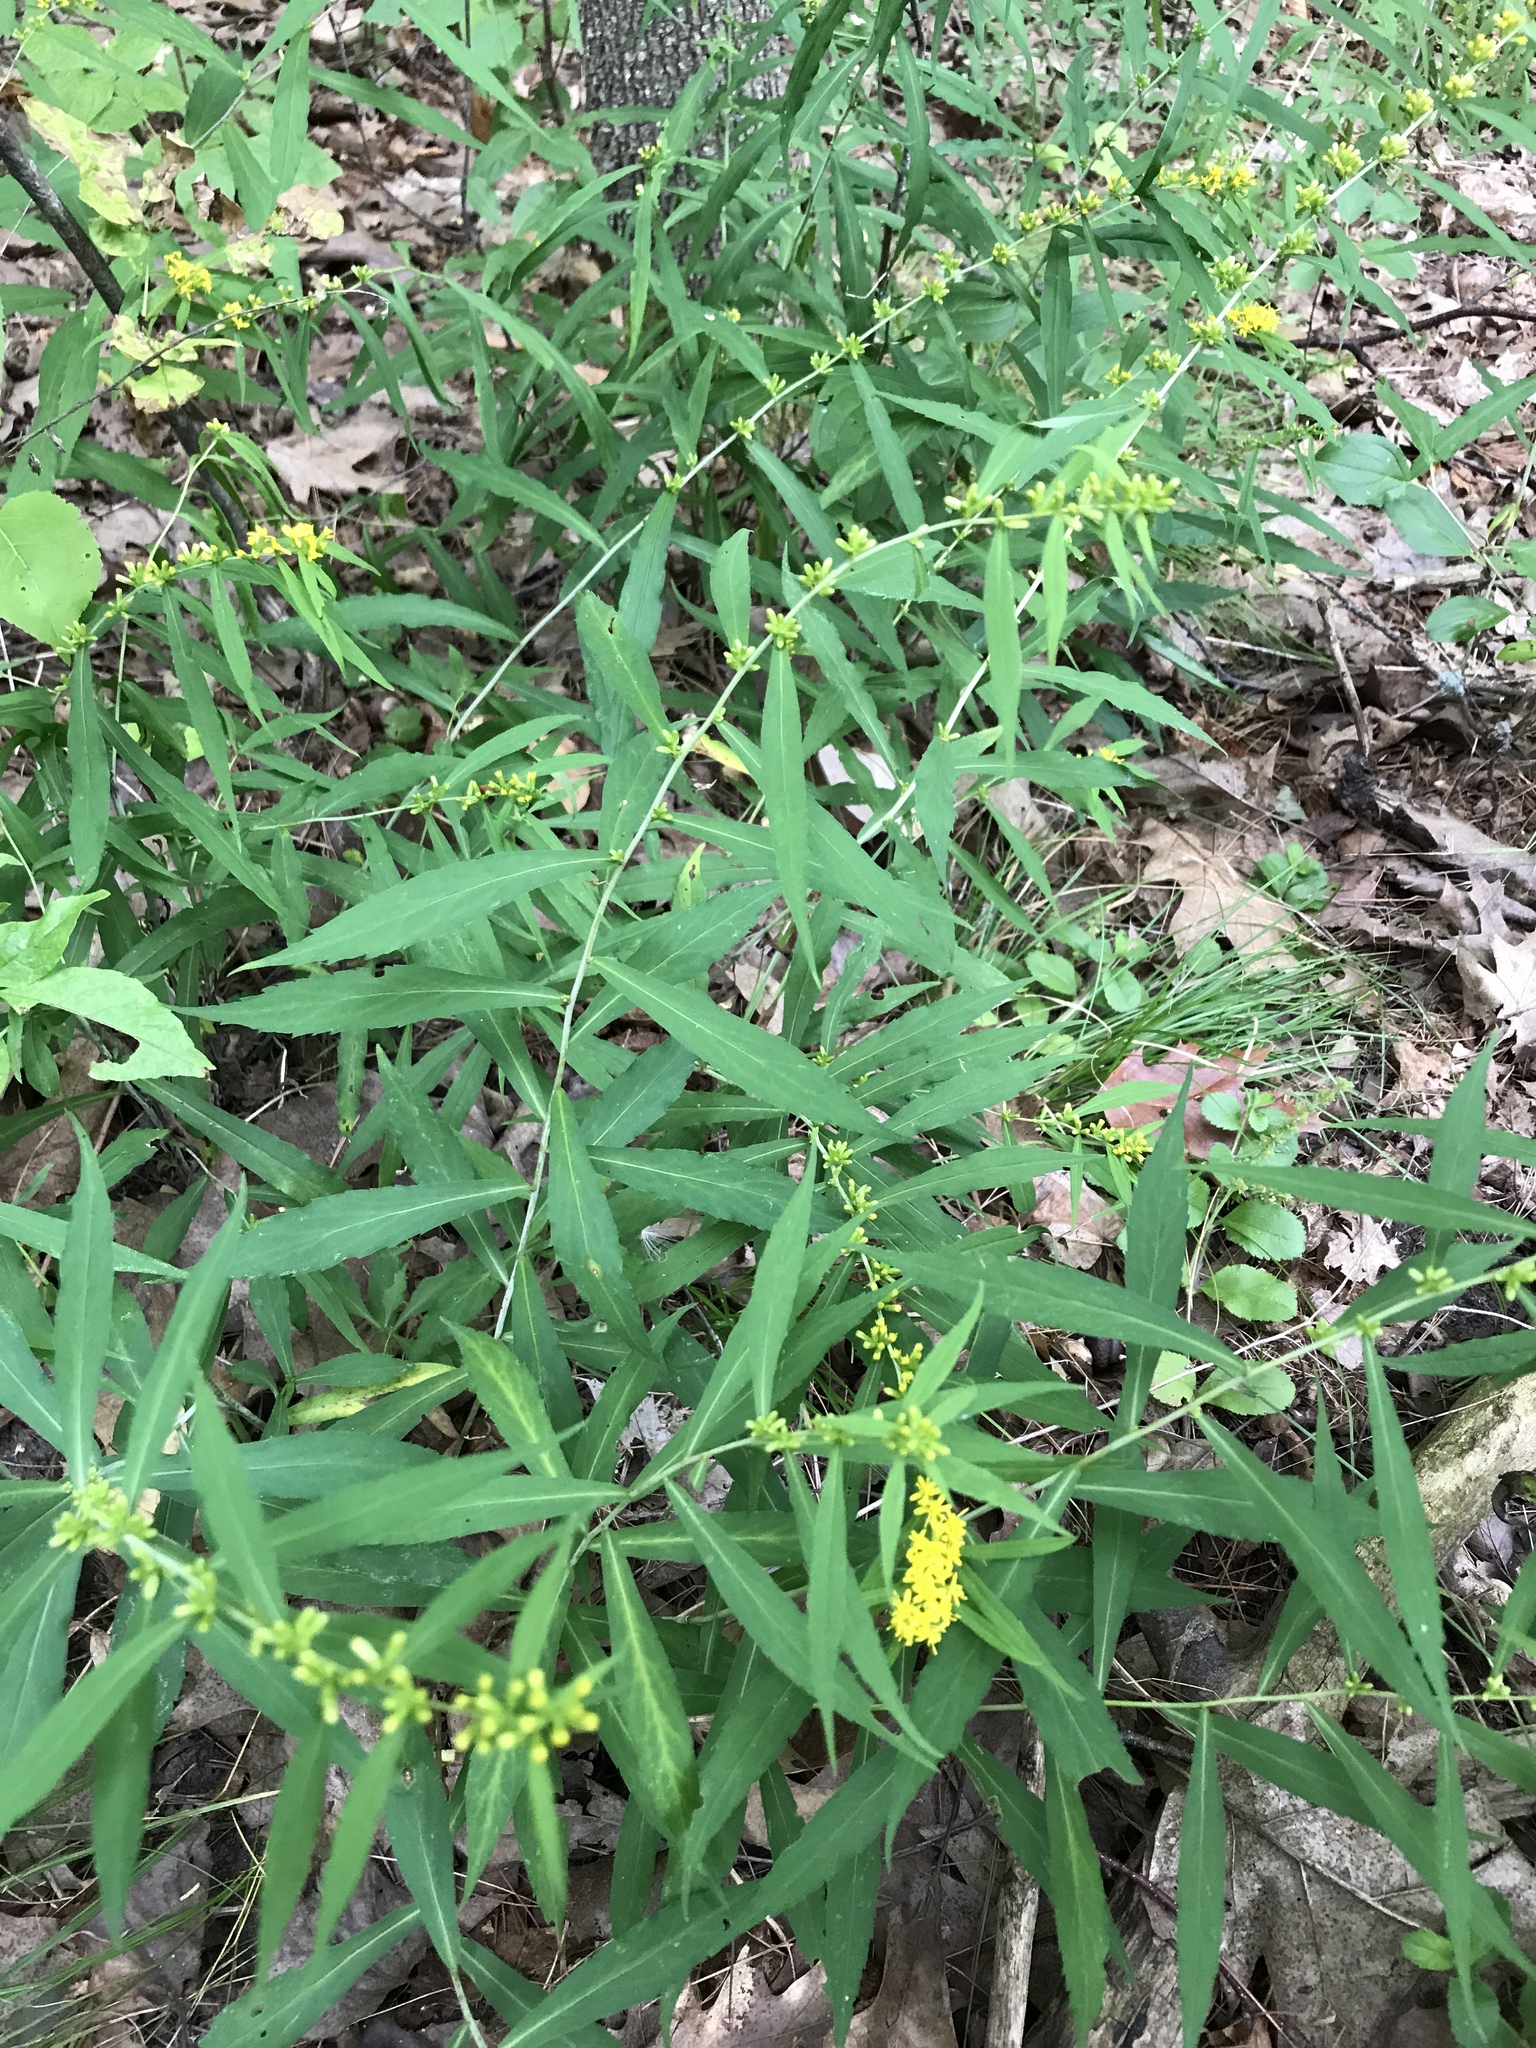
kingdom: Plantae
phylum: Tracheophyta
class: Magnoliopsida
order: Asterales
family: Asteraceae
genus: Solidago
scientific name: Solidago caesia
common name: Woodland goldenrod
